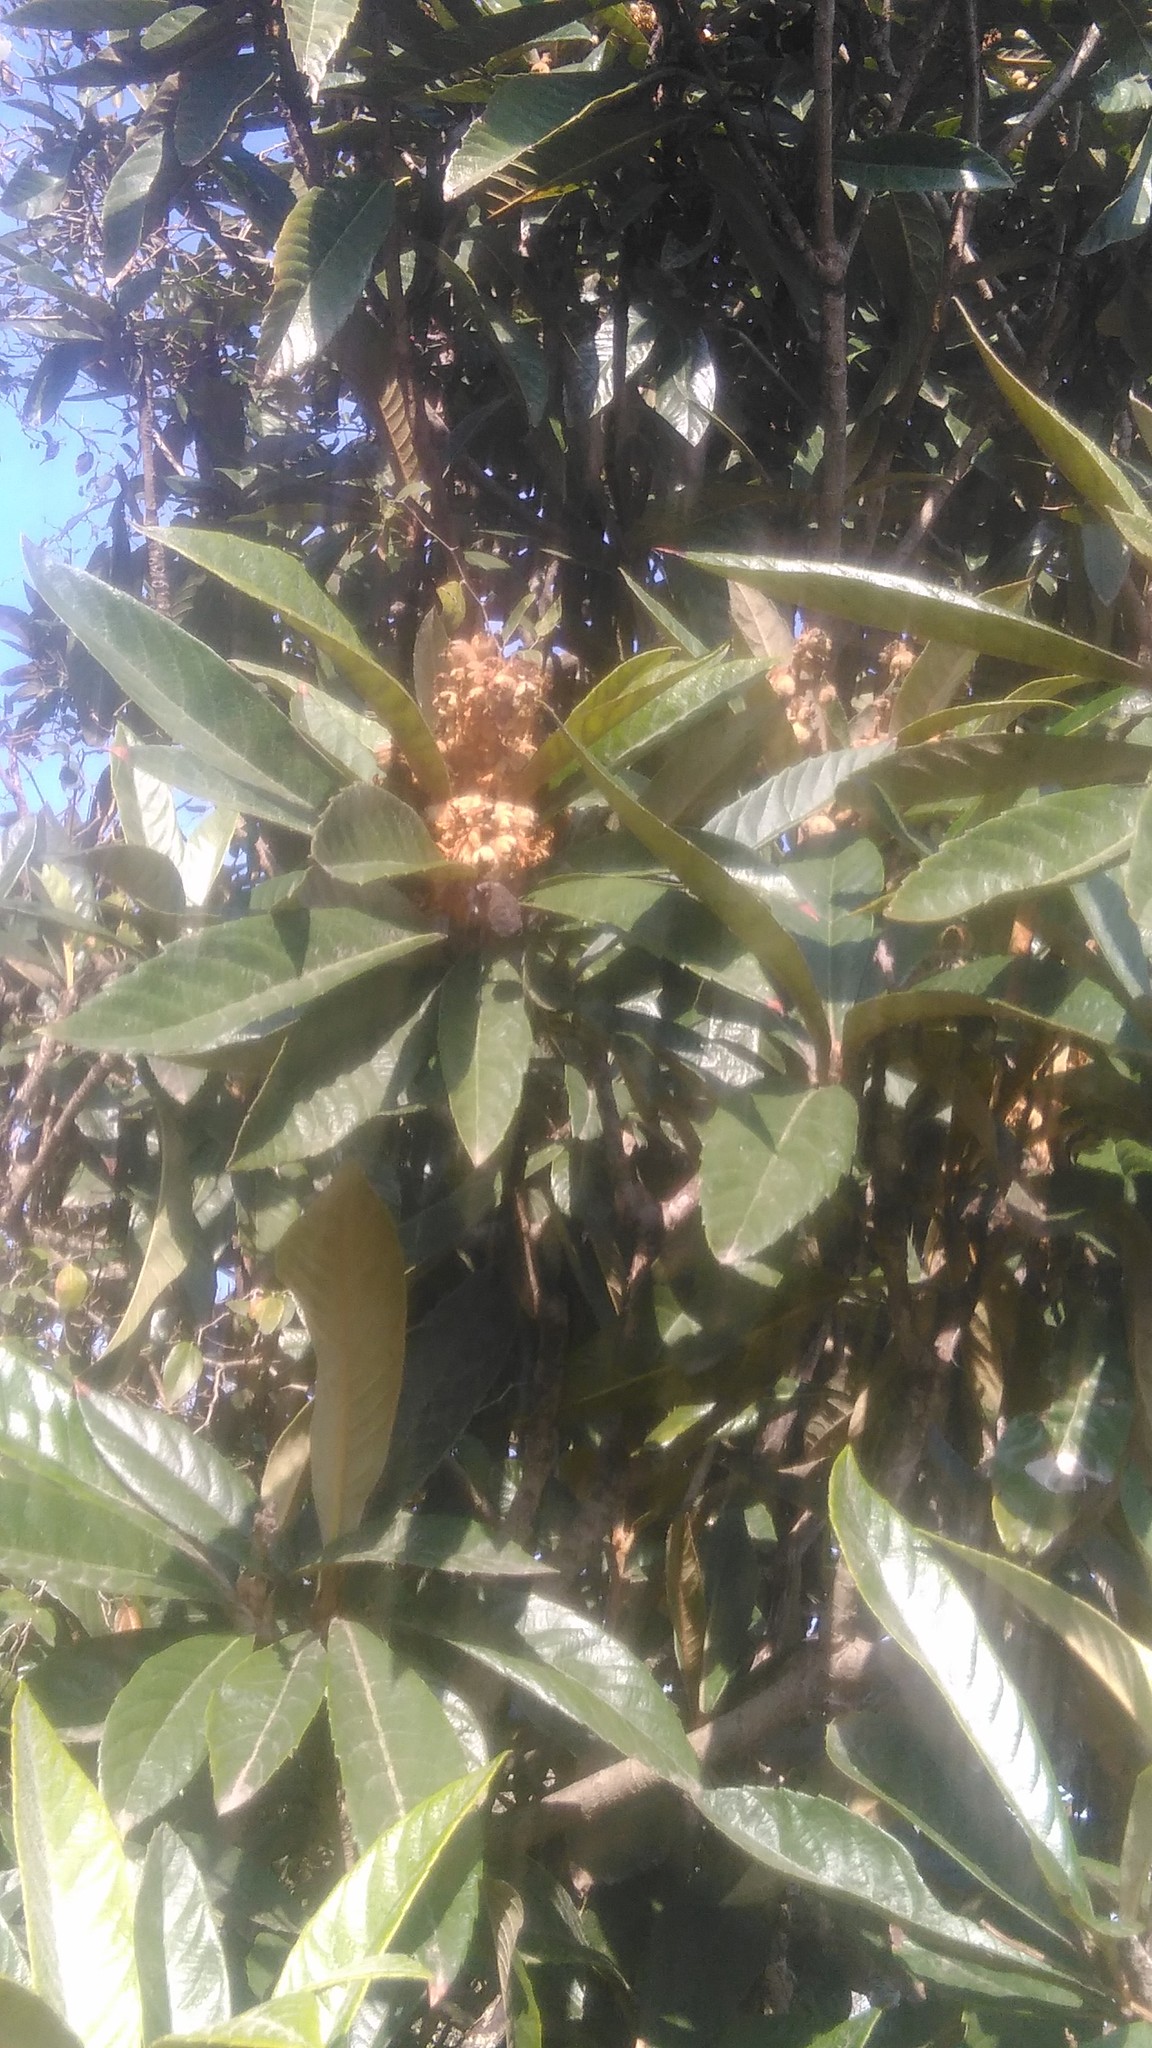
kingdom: Plantae
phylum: Tracheophyta
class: Magnoliopsida
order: Rosales
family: Rosaceae
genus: Rhaphiolepis
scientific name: Rhaphiolepis bibas
